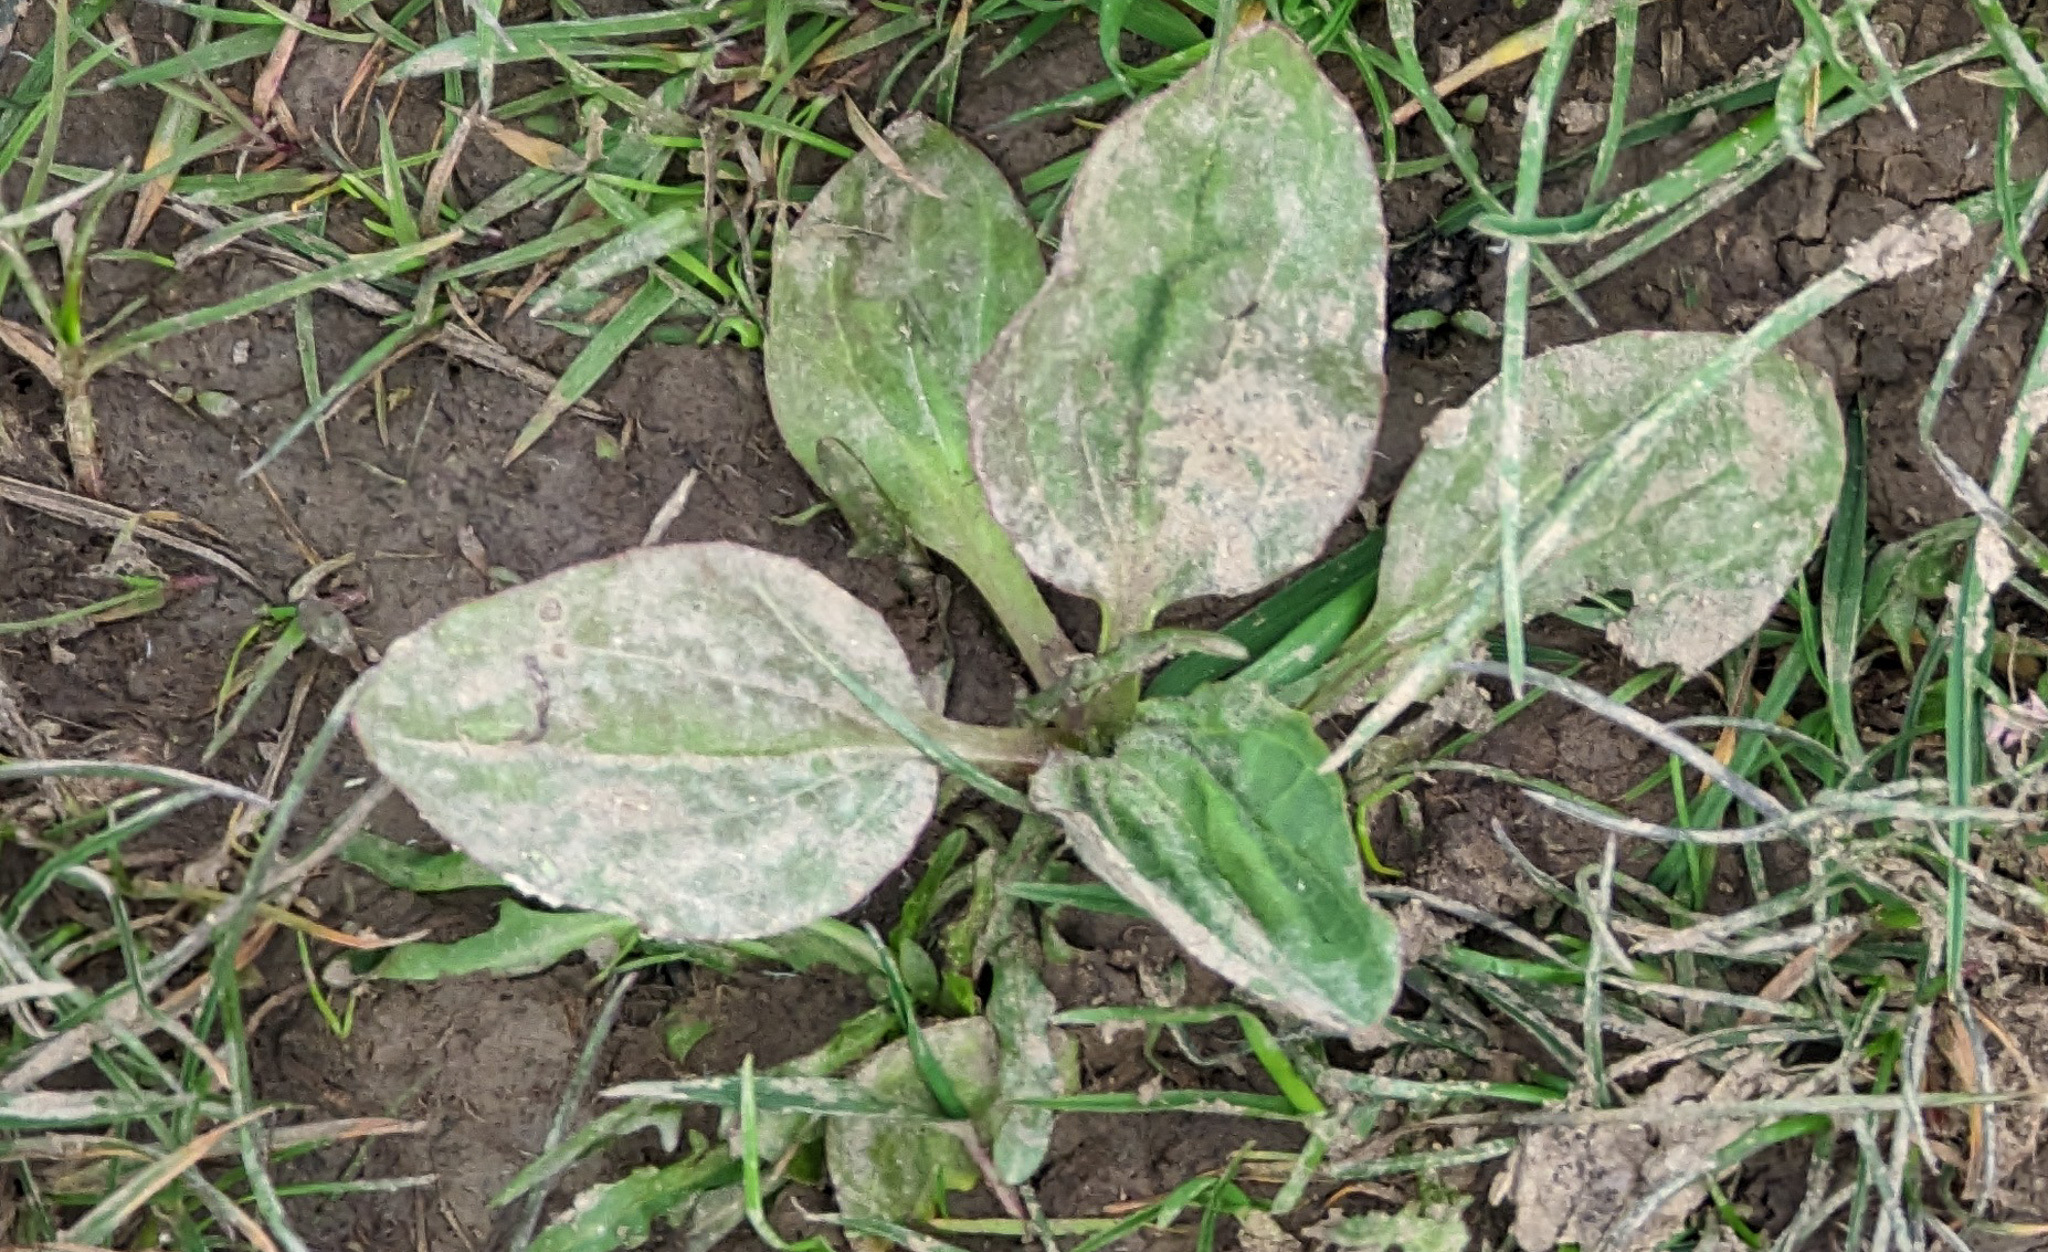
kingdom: Plantae
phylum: Tracheophyta
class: Magnoliopsida
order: Lamiales
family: Plantaginaceae
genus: Plantago
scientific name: Plantago major
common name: Common plantain
